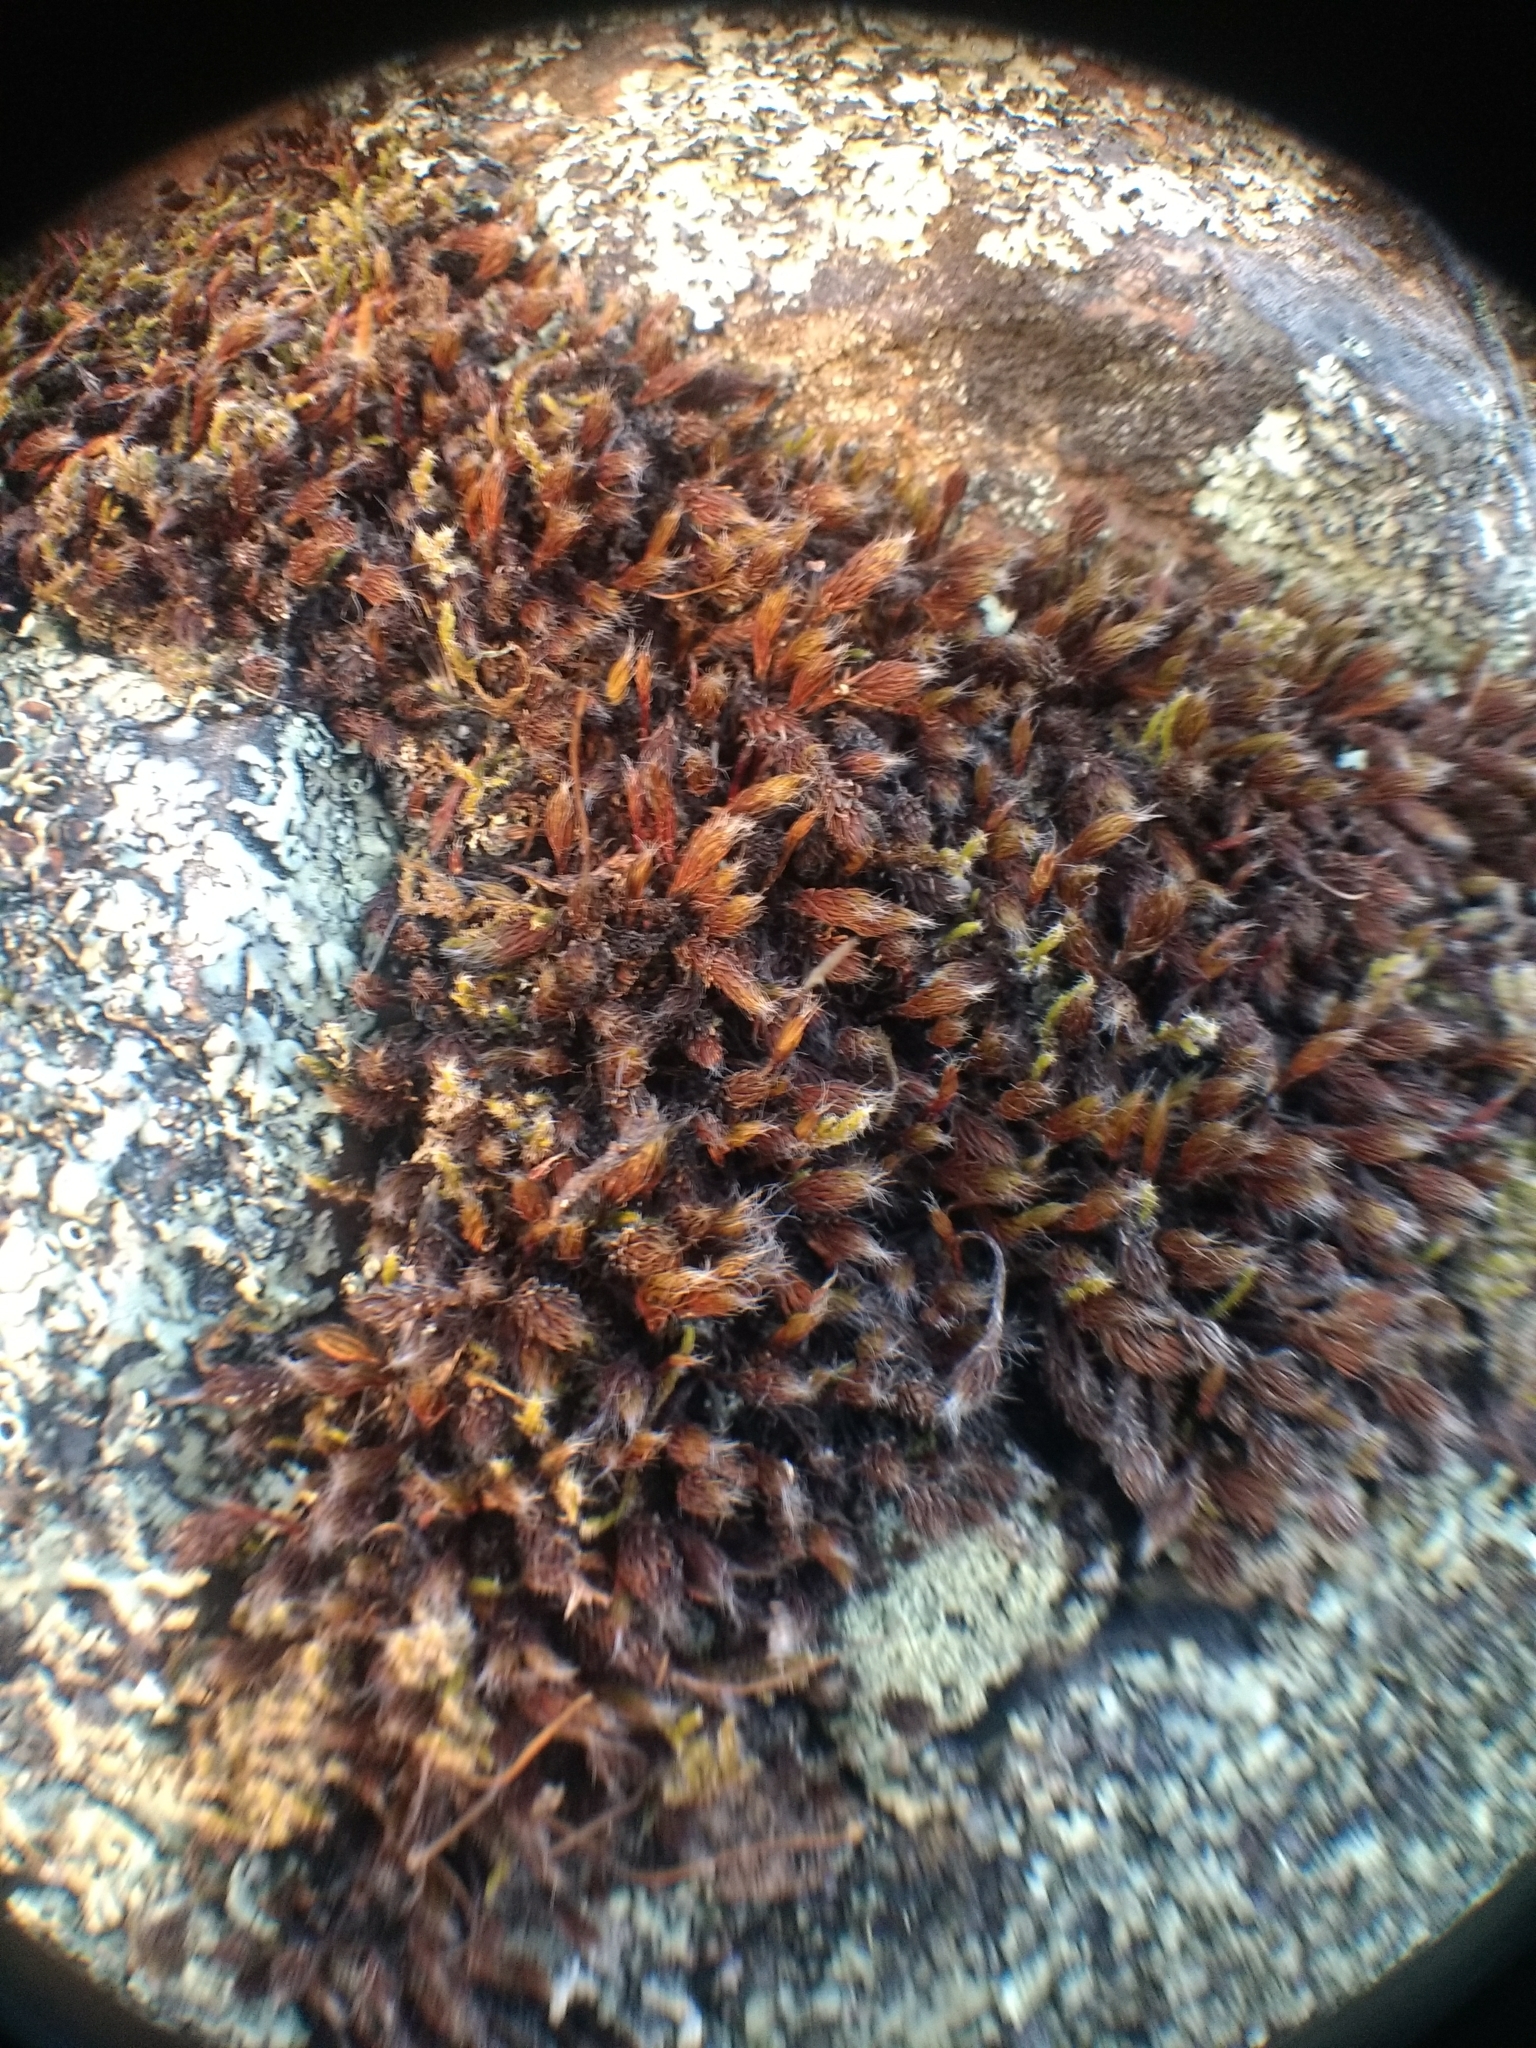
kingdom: Plantae
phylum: Bryophyta
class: Polytrichopsida
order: Polytrichales
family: Polytrichaceae
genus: Polytrichum
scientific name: Polytrichum piliferum
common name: Bristly haircap
